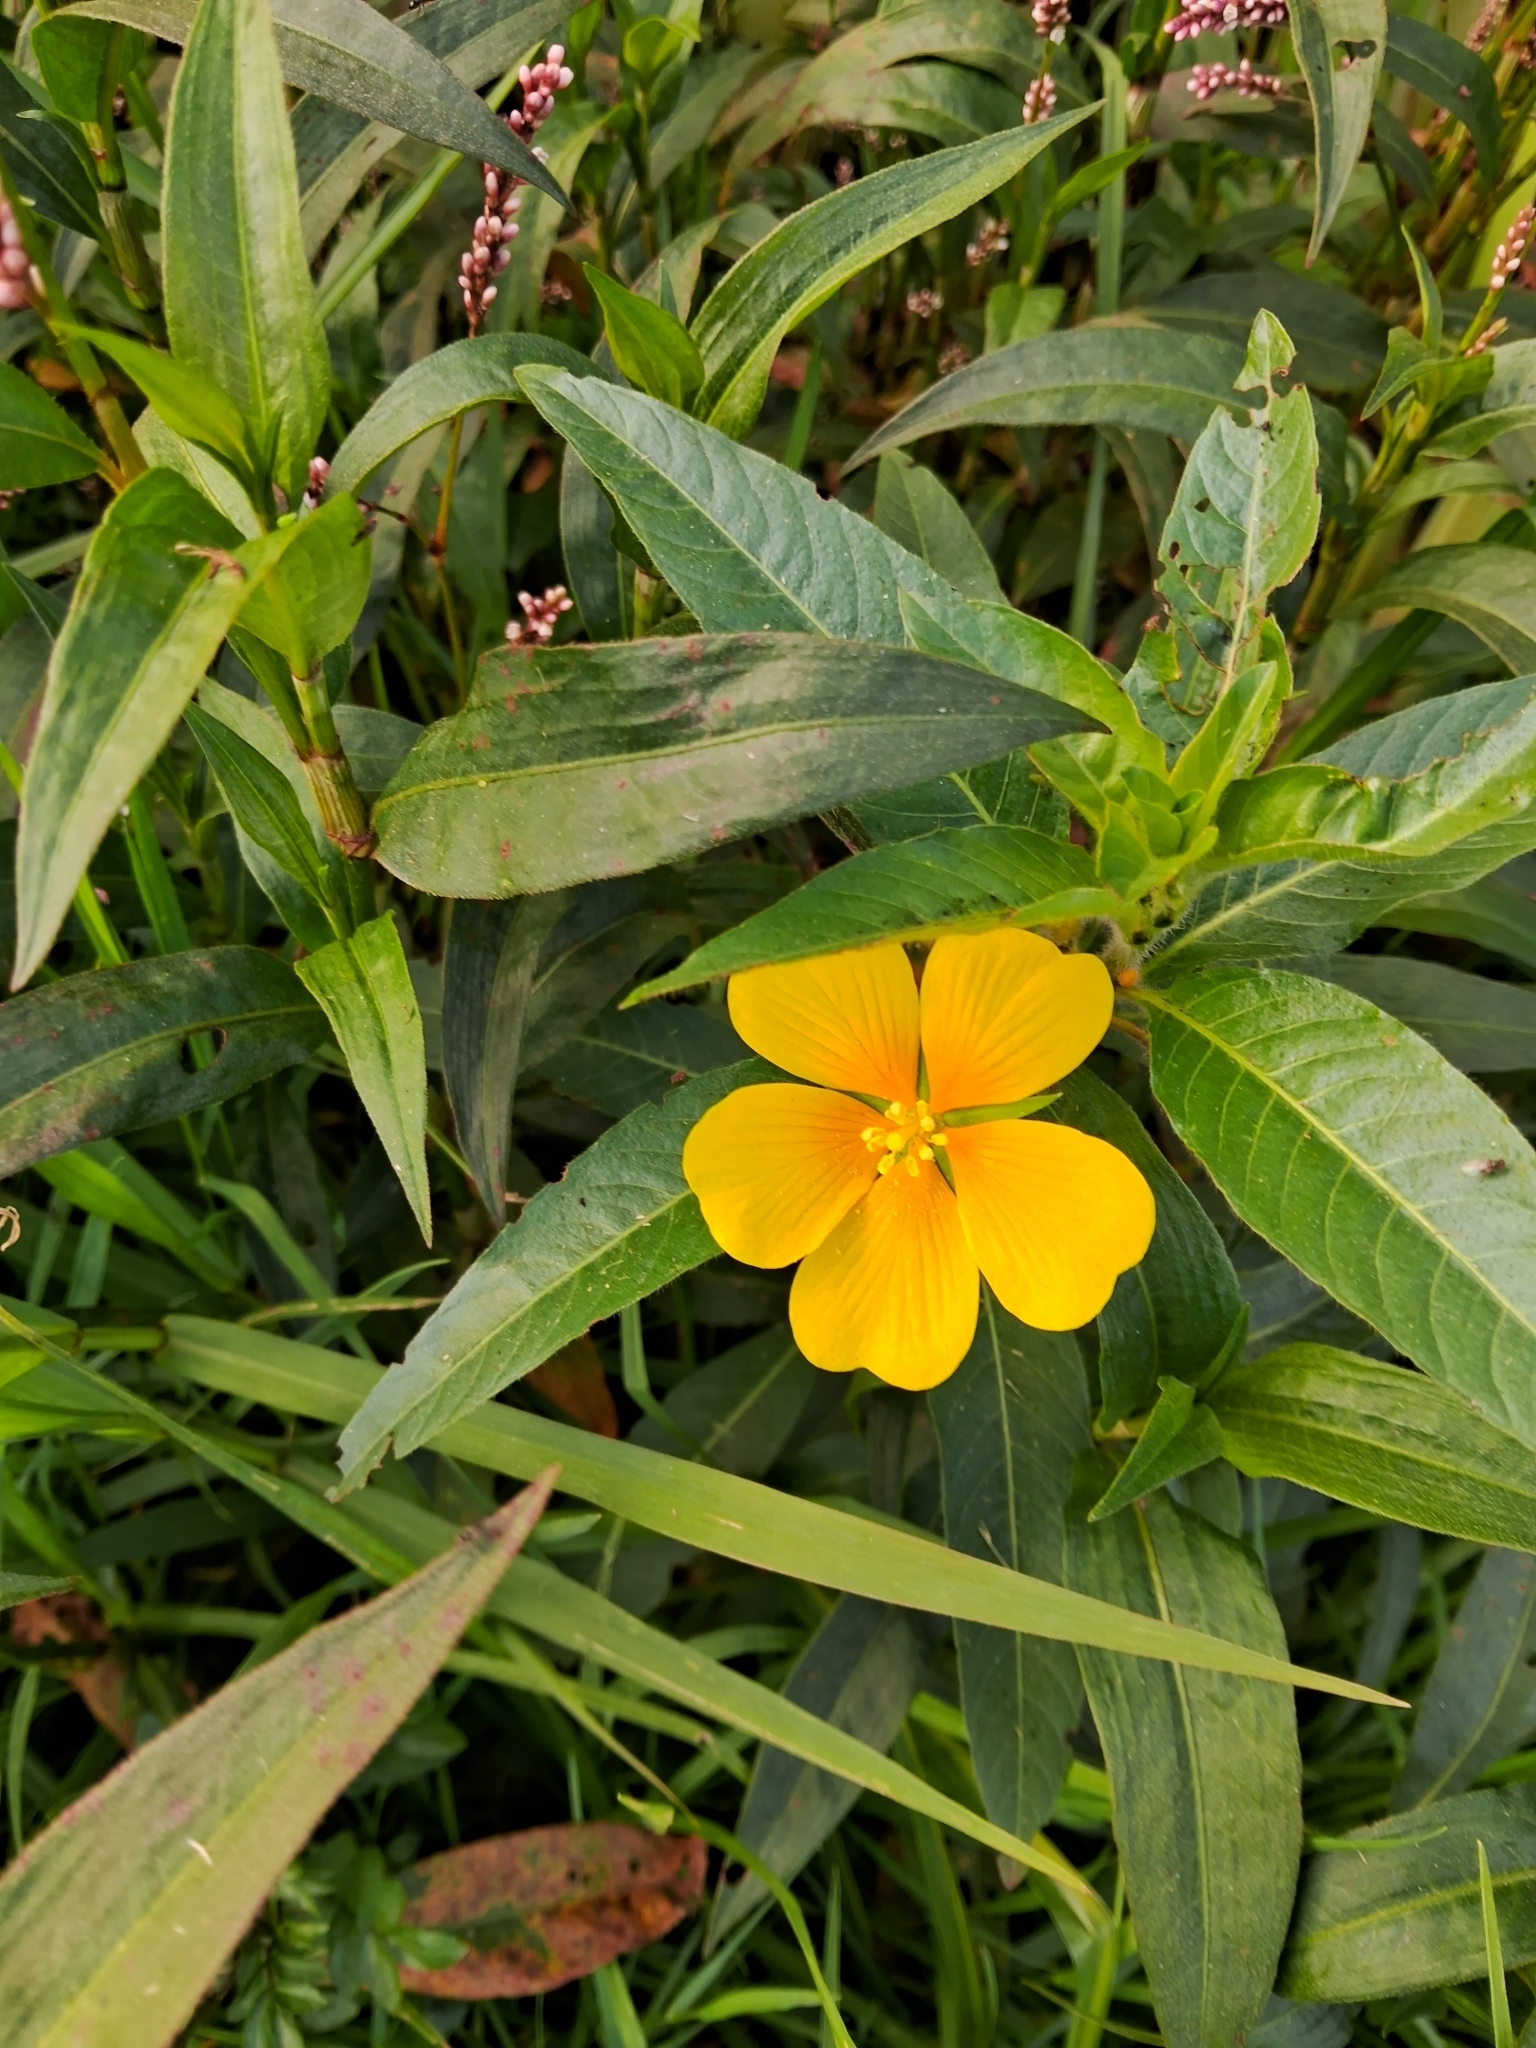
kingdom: Plantae
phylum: Tracheophyta
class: Magnoliopsida
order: Myrtales
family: Onagraceae
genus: Ludwigia
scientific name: Ludwigia peploides
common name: Floating primrose-willow
